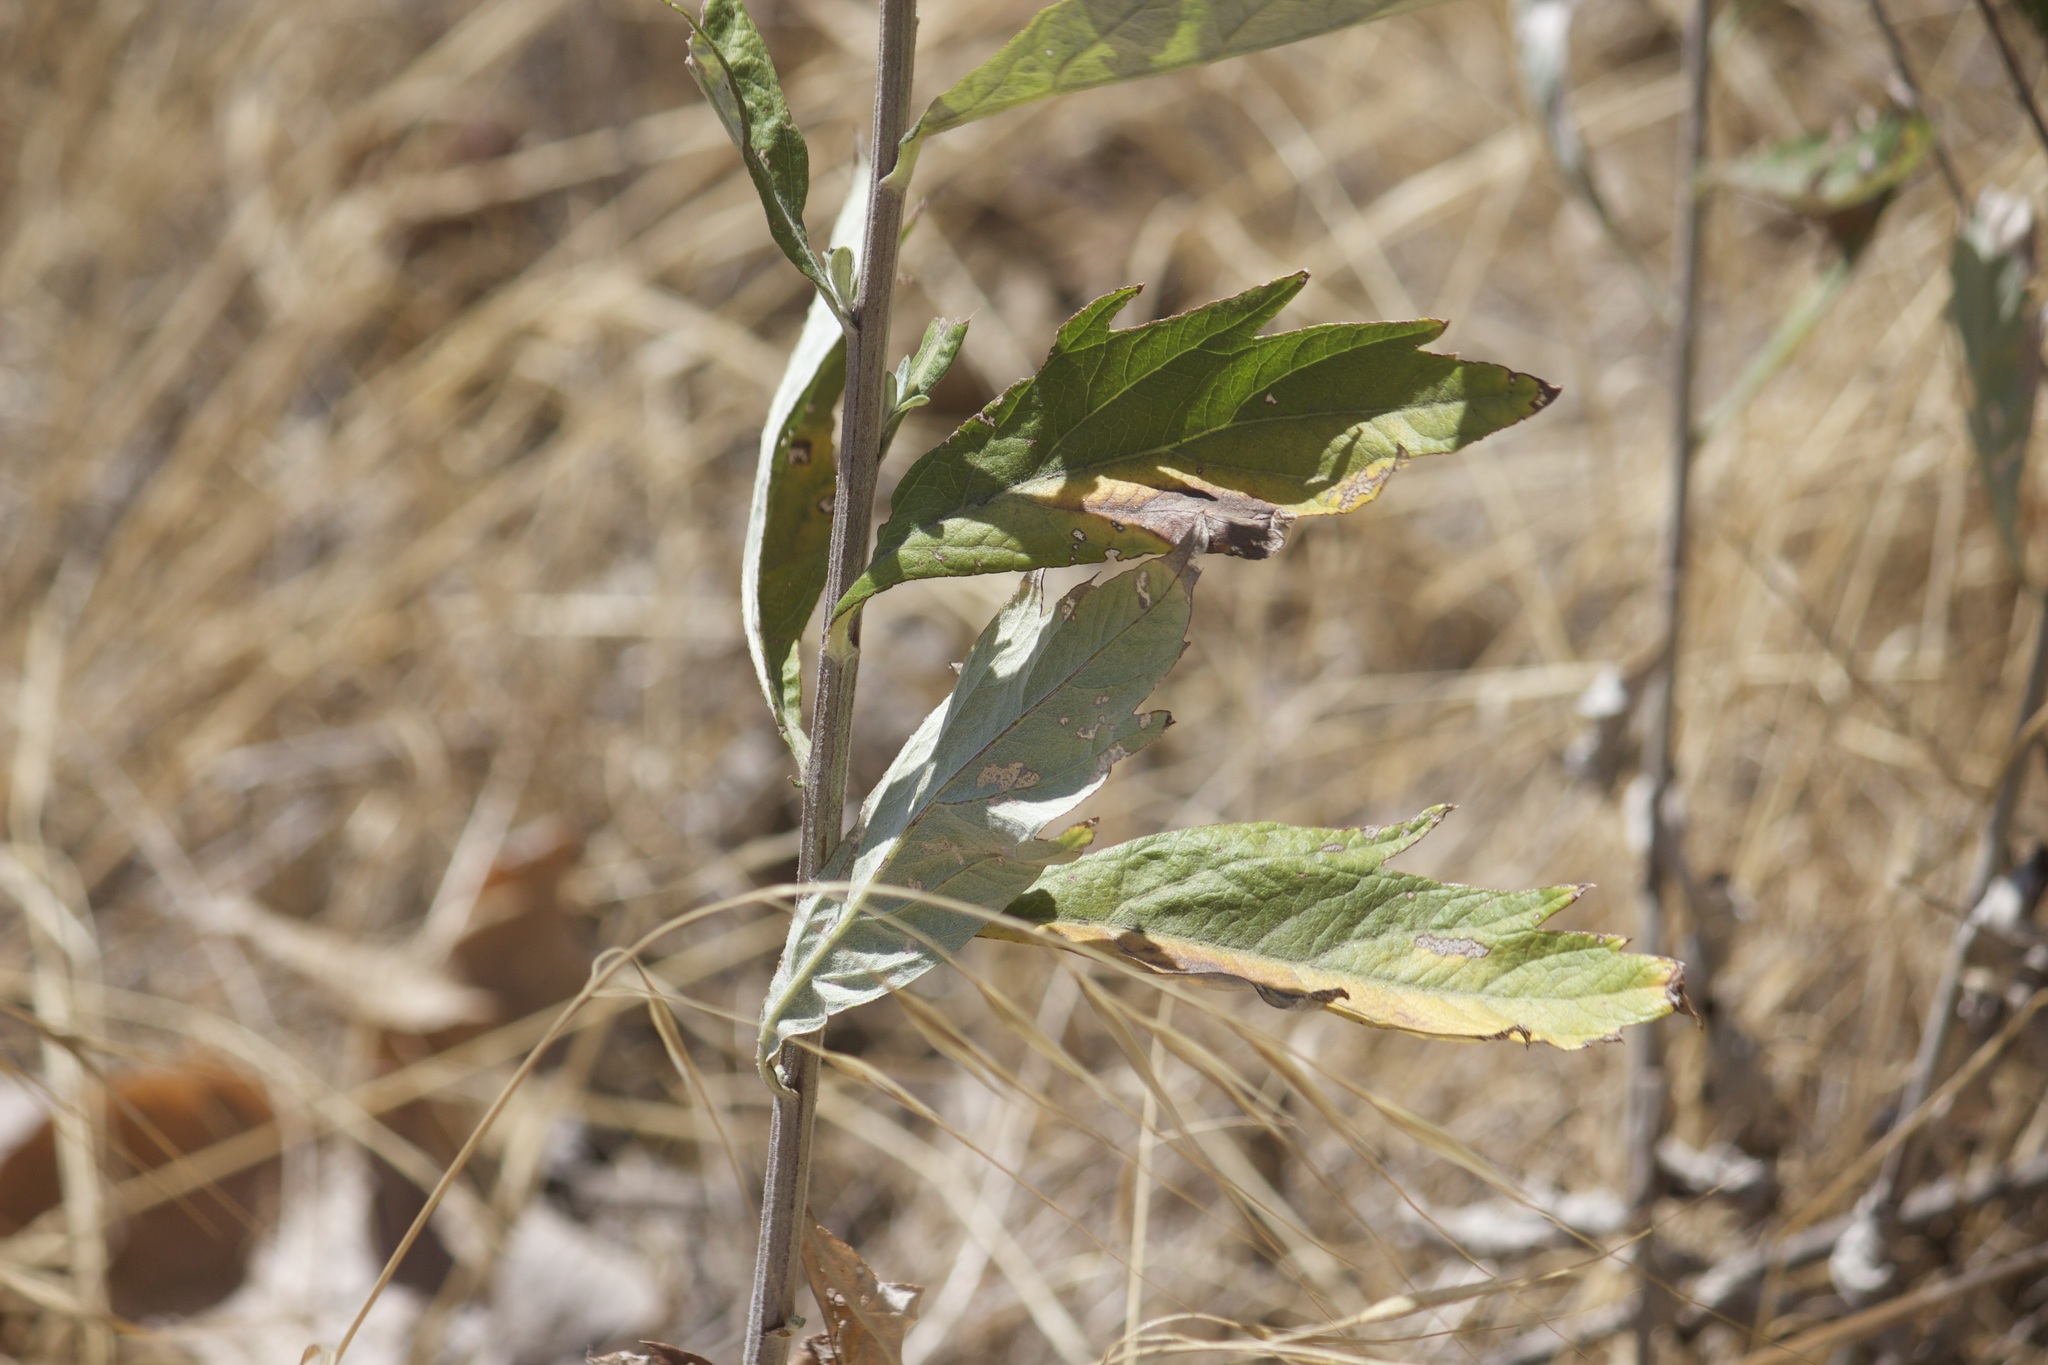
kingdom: Plantae
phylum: Tracheophyta
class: Magnoliopsida
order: Asterales
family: Asteraceae
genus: Artemisia
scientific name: Artemisia douglasiana
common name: Northwest mugwort
